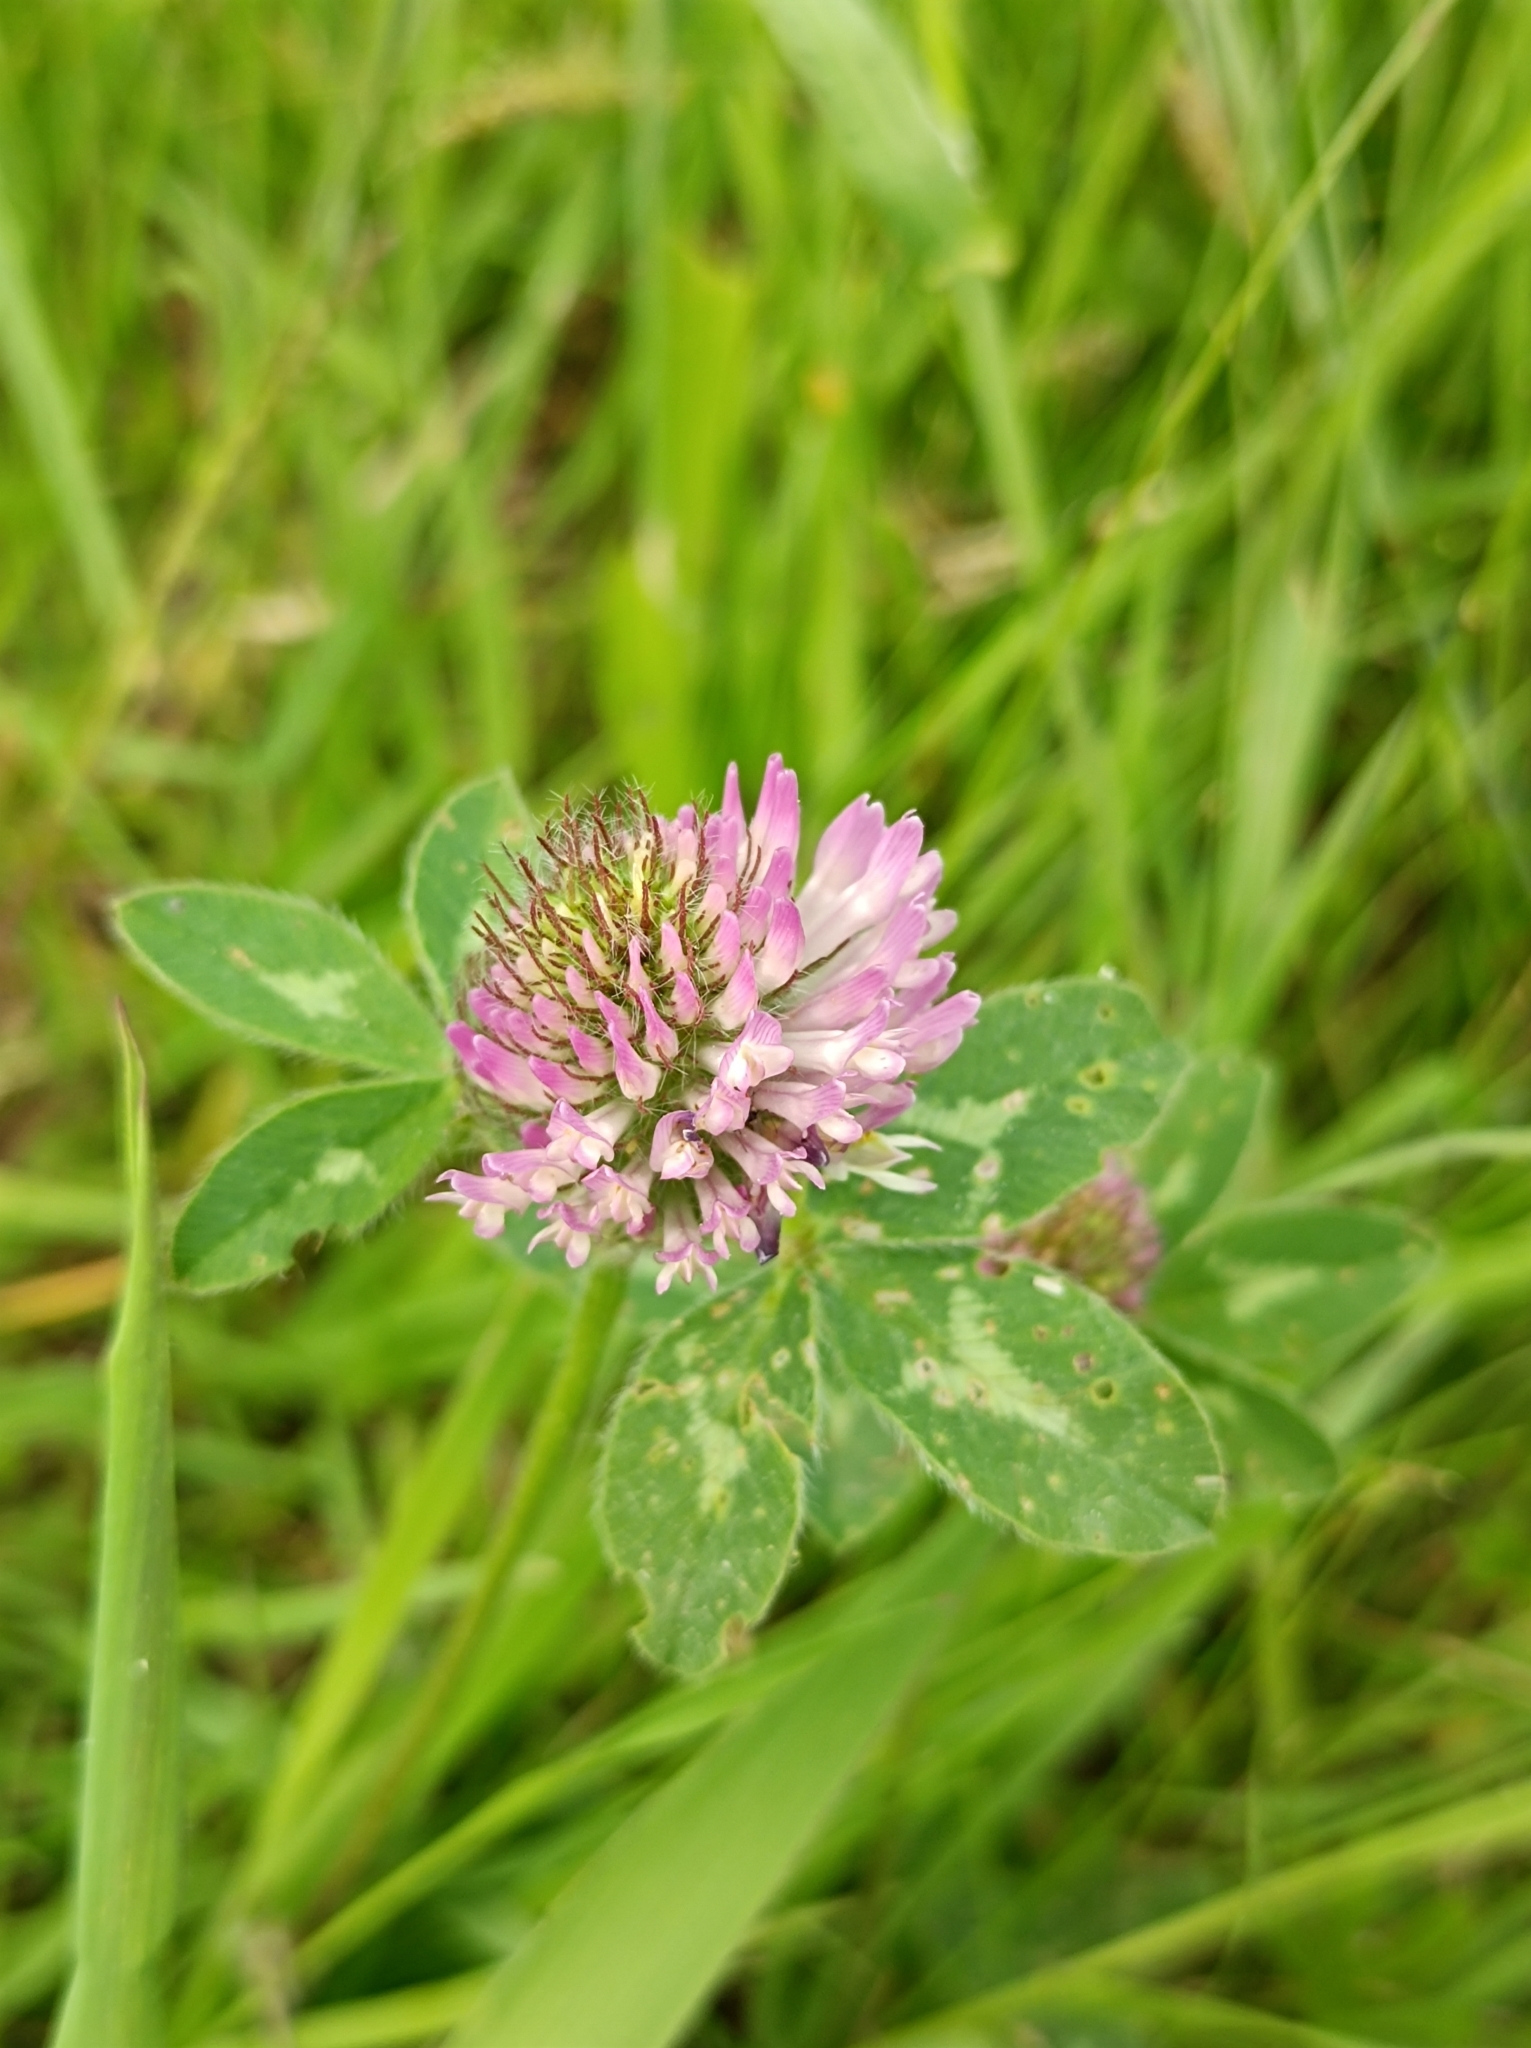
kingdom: Plantae
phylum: Tracheophyta
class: Magnoliopsida
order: Fabales
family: Fabaceae
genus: Trifolium
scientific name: Trifolium pratense
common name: Red clover
